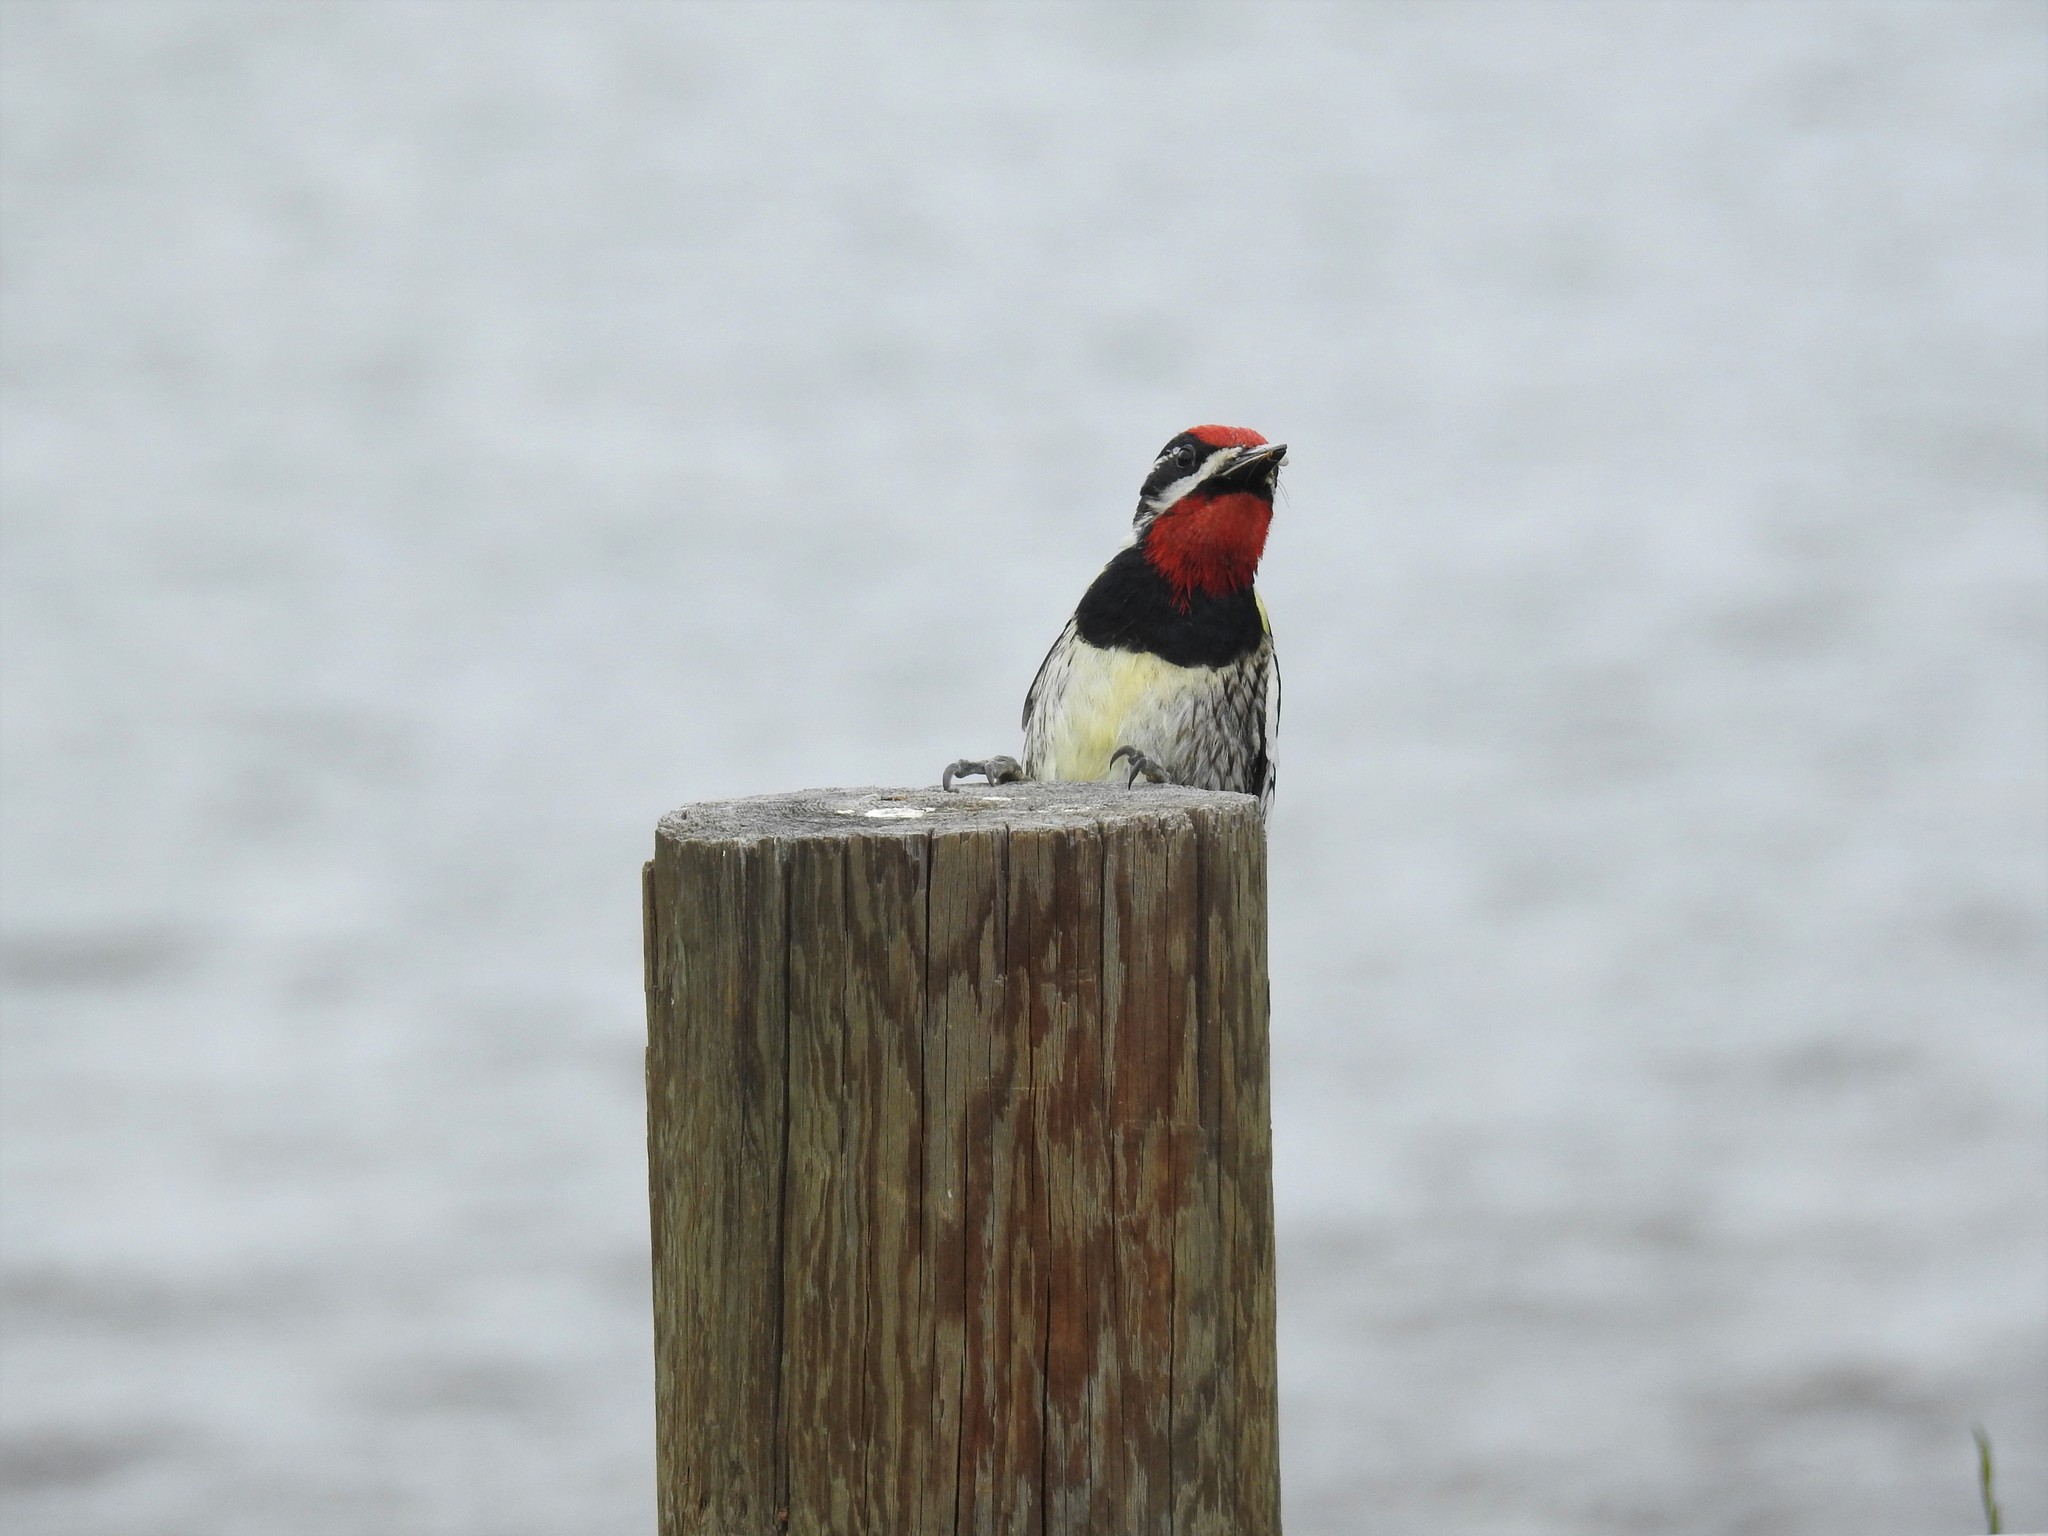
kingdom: Animalia
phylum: Chordata
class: Aves
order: Piciformes
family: Picidae
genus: Sphyrapicus
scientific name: Sphyrapicus nuchalis
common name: Red-naped sapsucker
